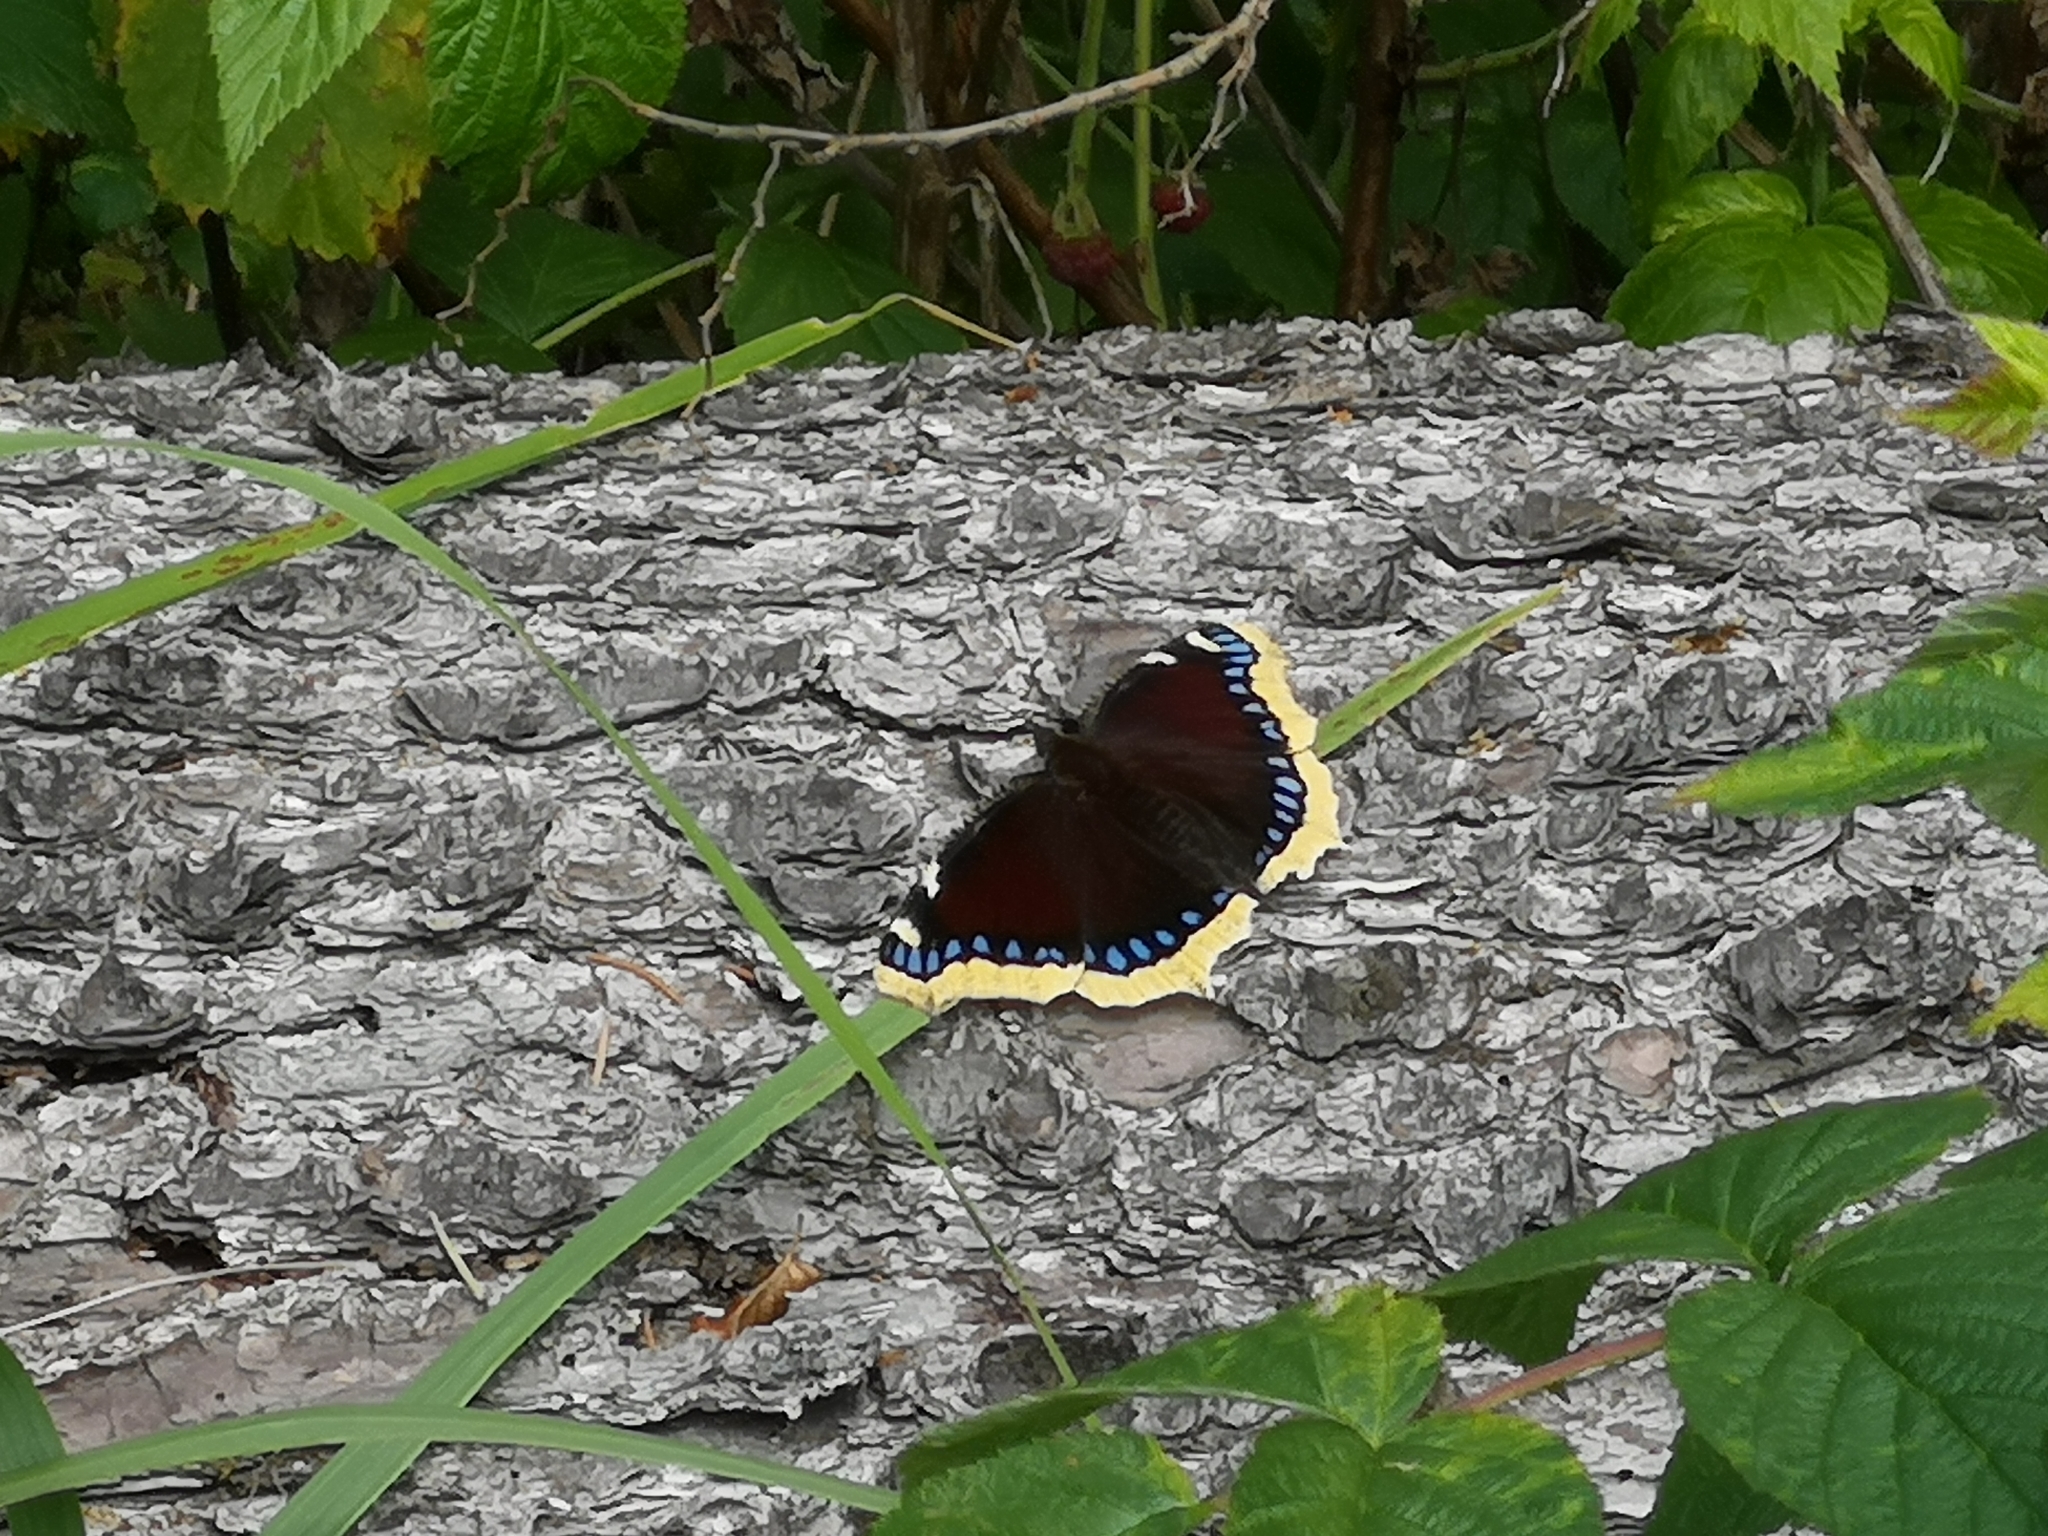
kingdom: Animalia
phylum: Arthropoda
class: Insecta
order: Lepidoptera
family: Nymphalidae
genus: Nymphalis
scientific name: Nymphalis antiopa
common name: Camberwell beauty
